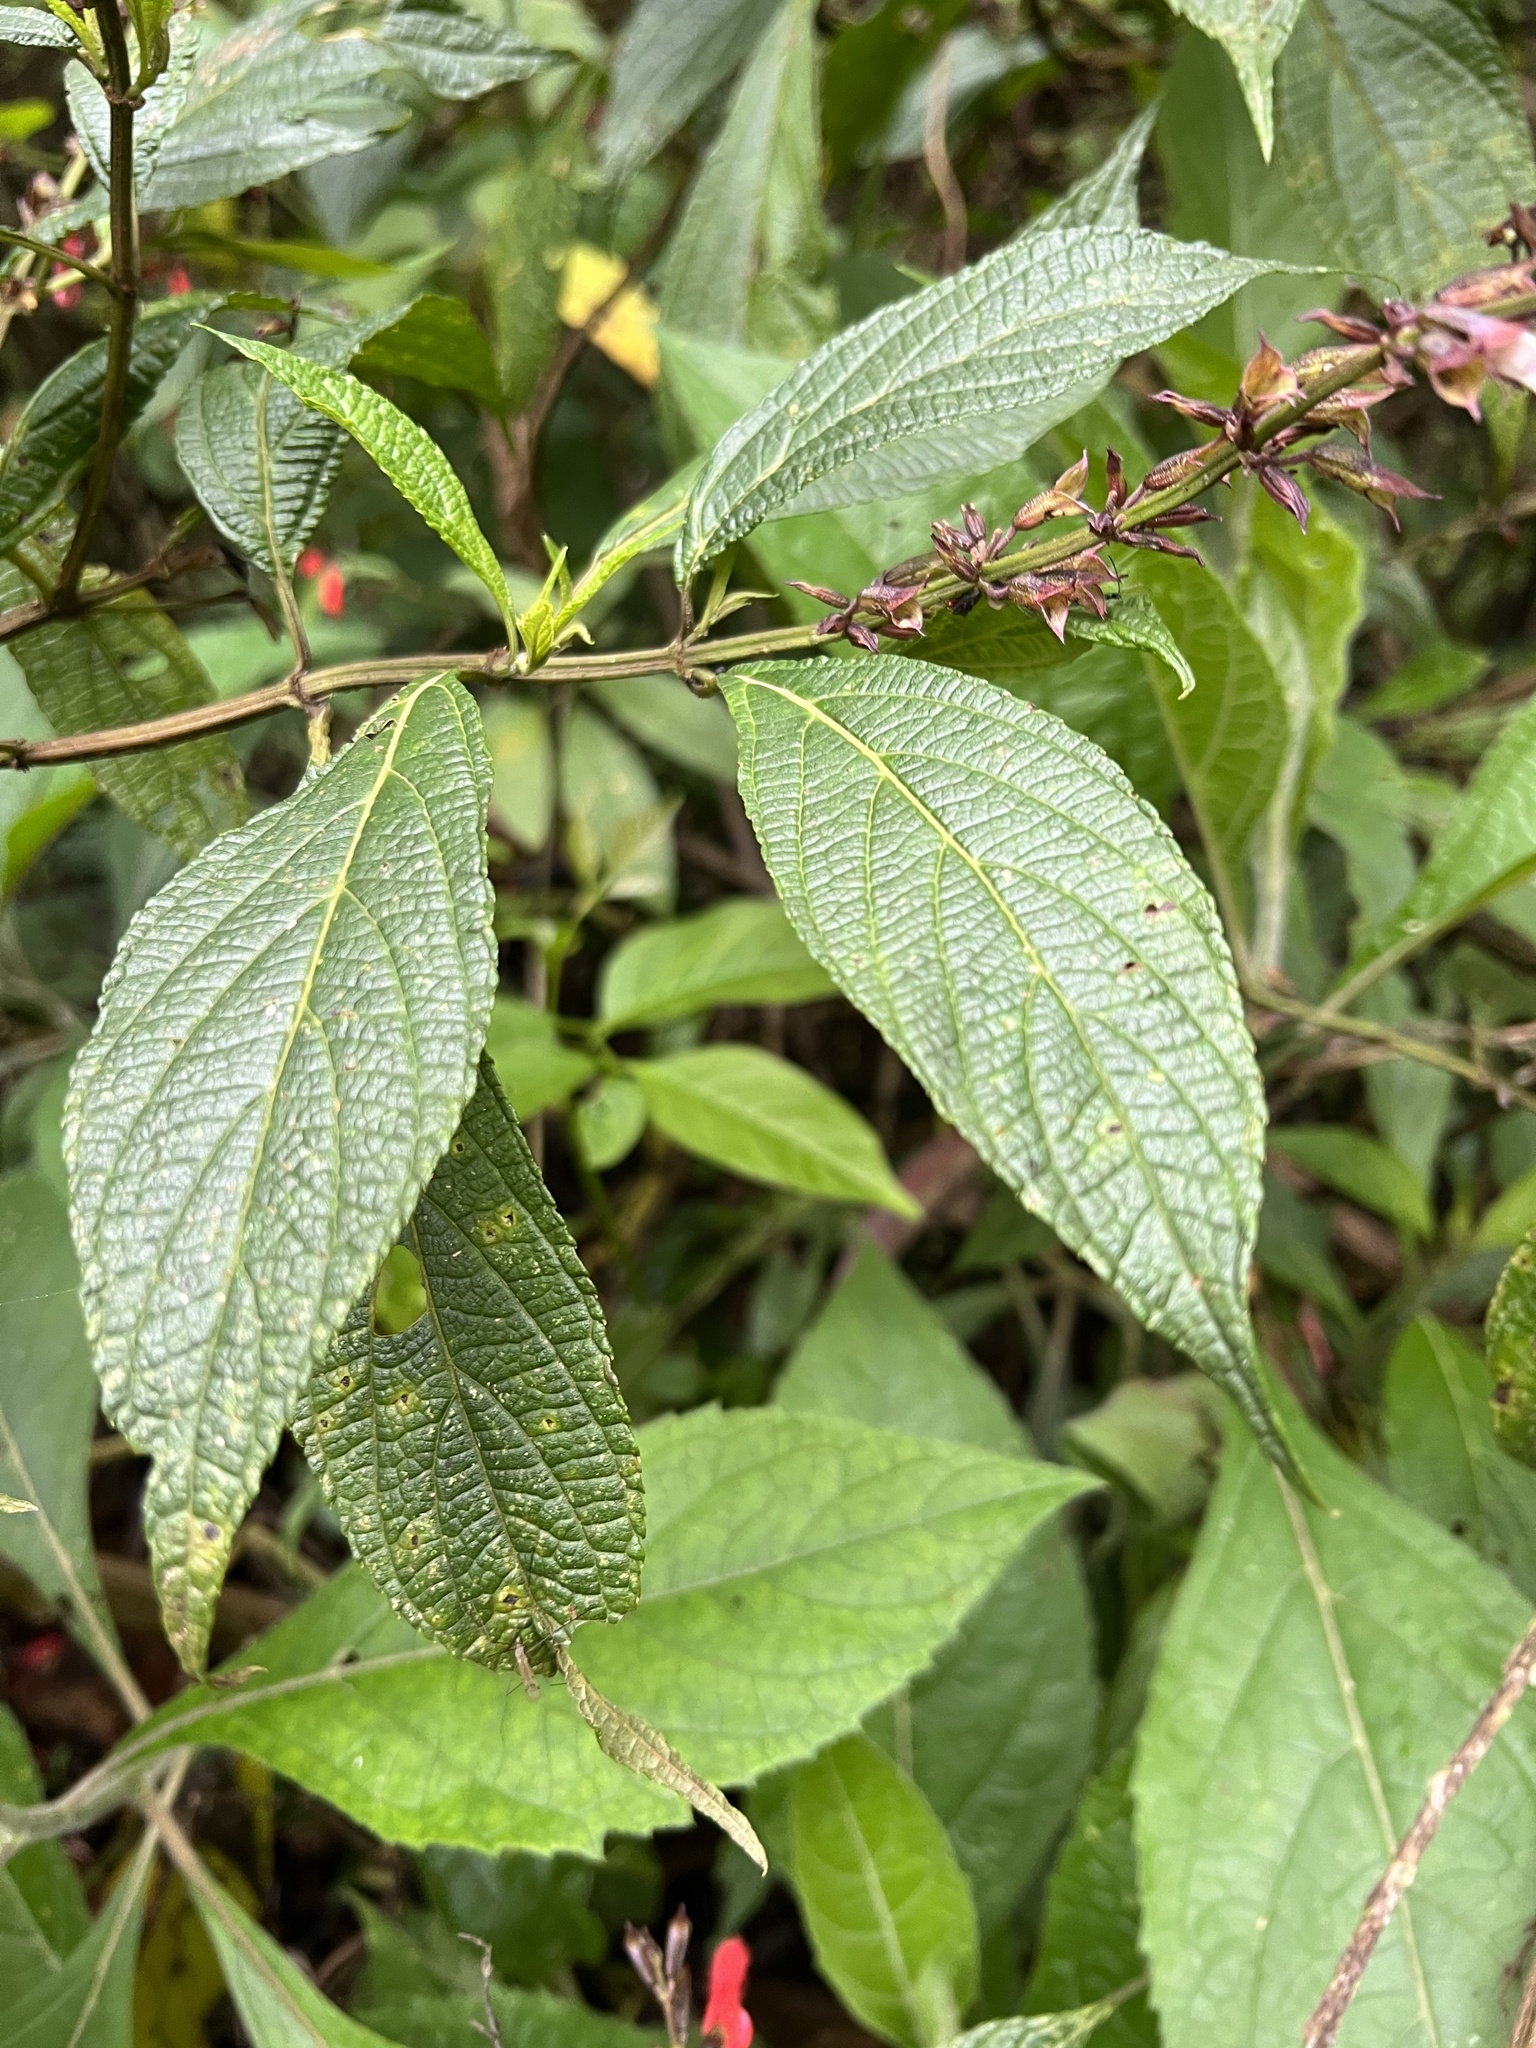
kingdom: Plantae
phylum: Tracheophyta
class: Magnoliopsida
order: Lamiales
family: Lamiaceae
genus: Salvia
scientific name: Salvia rufula
